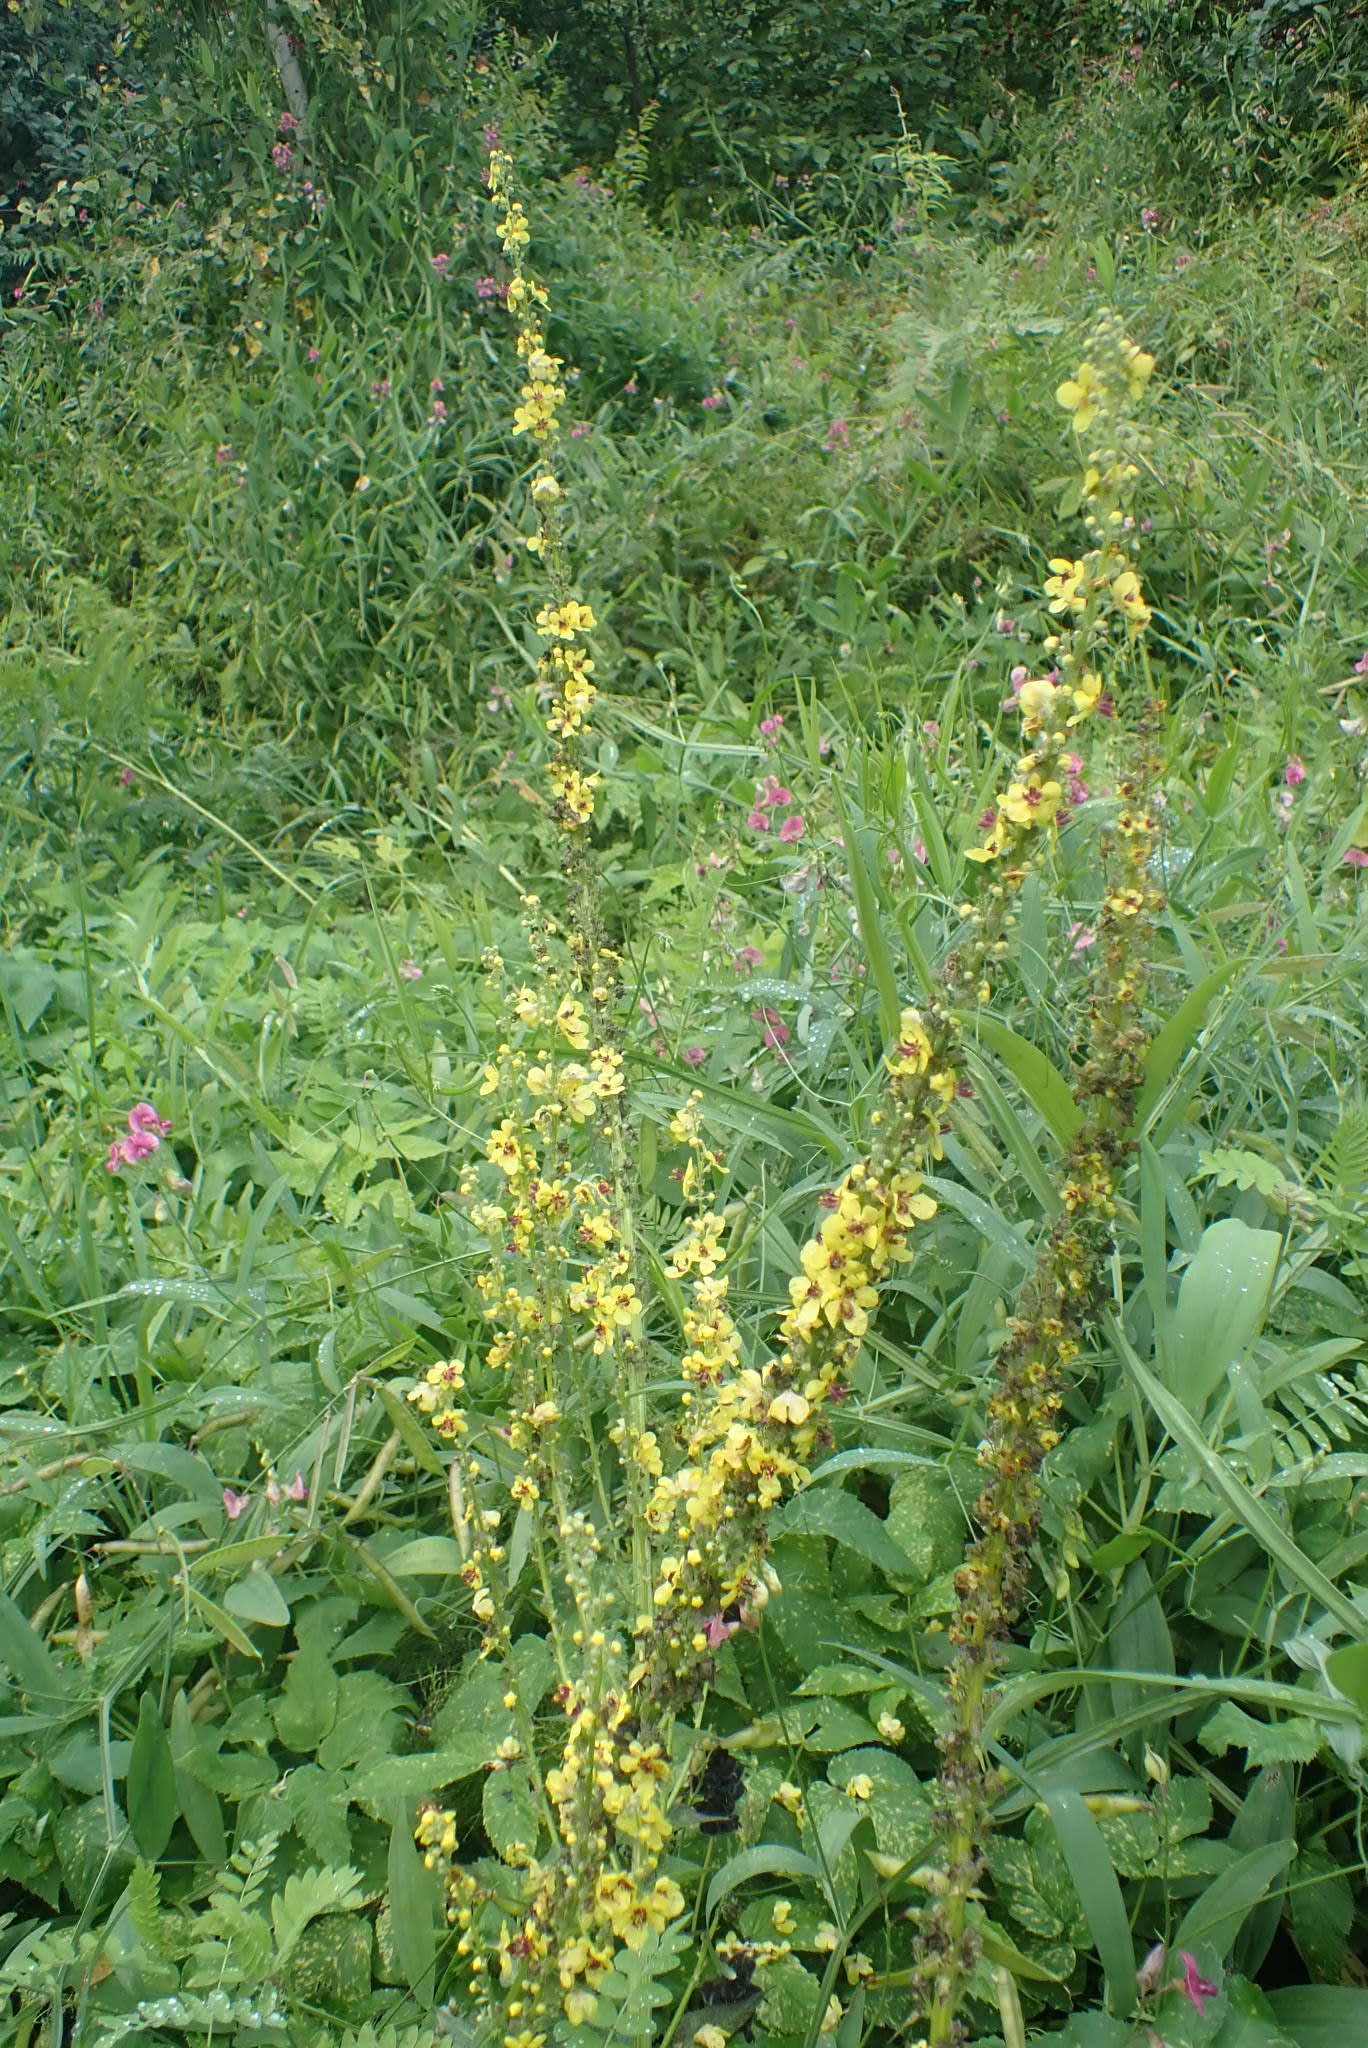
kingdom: Plantae
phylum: Tracheophyta
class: Magnoliopsida
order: Lamiales
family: Scrophulariaceae
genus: Verbascum
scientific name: Verbascum nigrum
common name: Dark mullein
